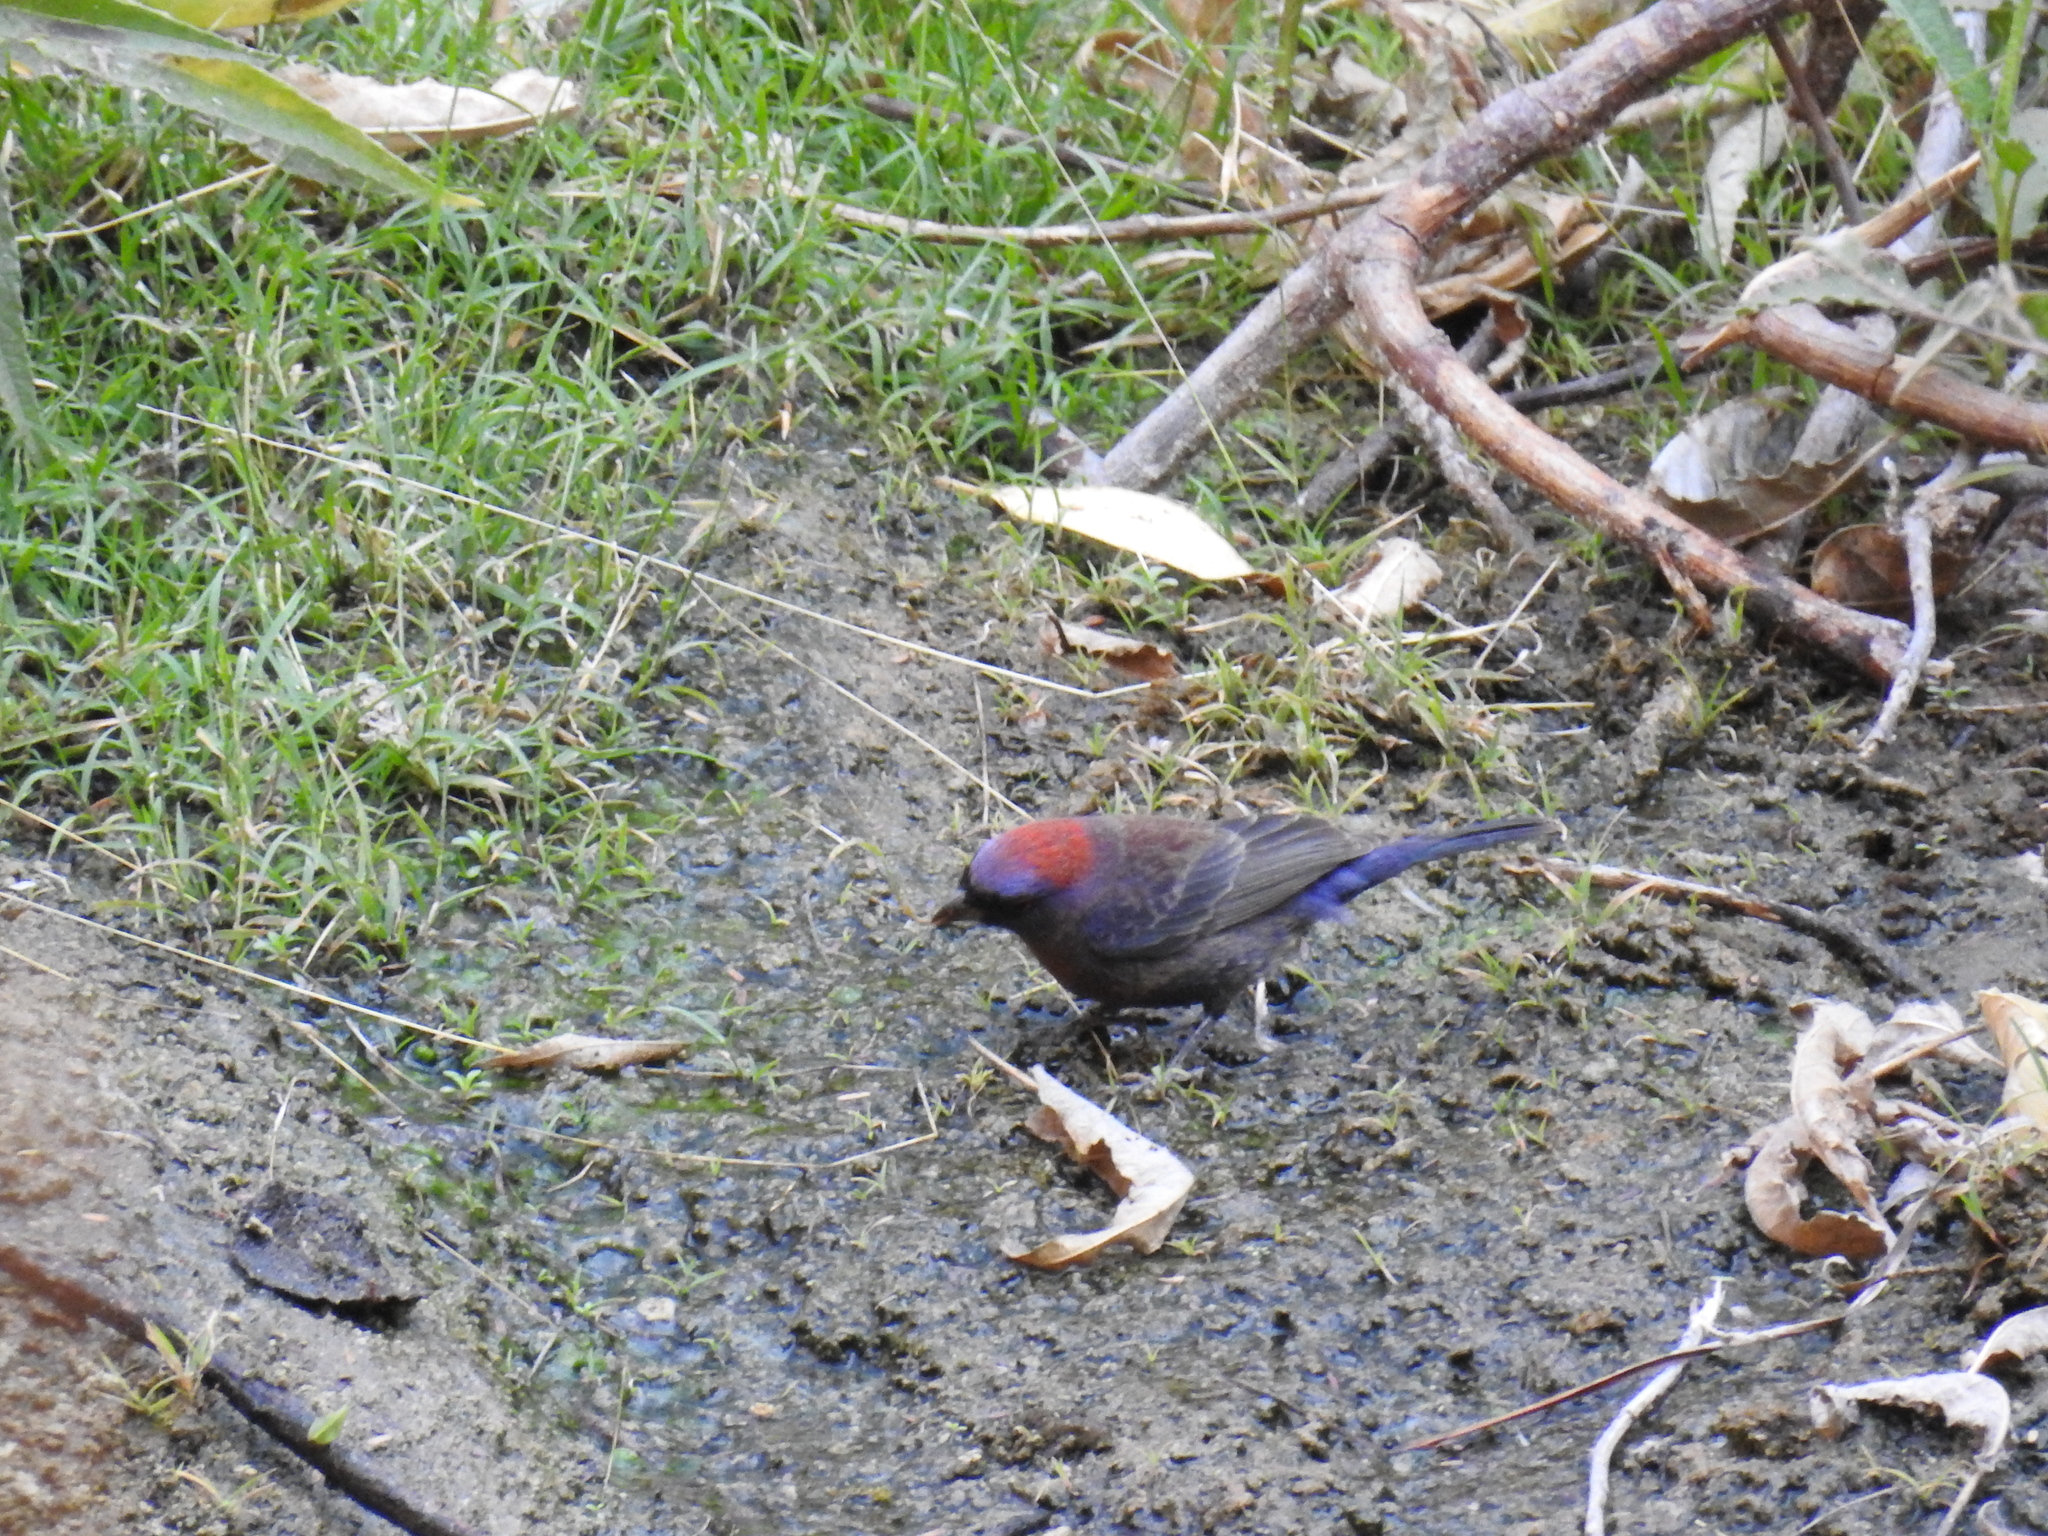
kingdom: Animalia
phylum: Chordata
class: Aves
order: Passeriformes
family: Cardinalidae
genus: Passerina
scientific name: Passerina versicolor
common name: Varied bunting
